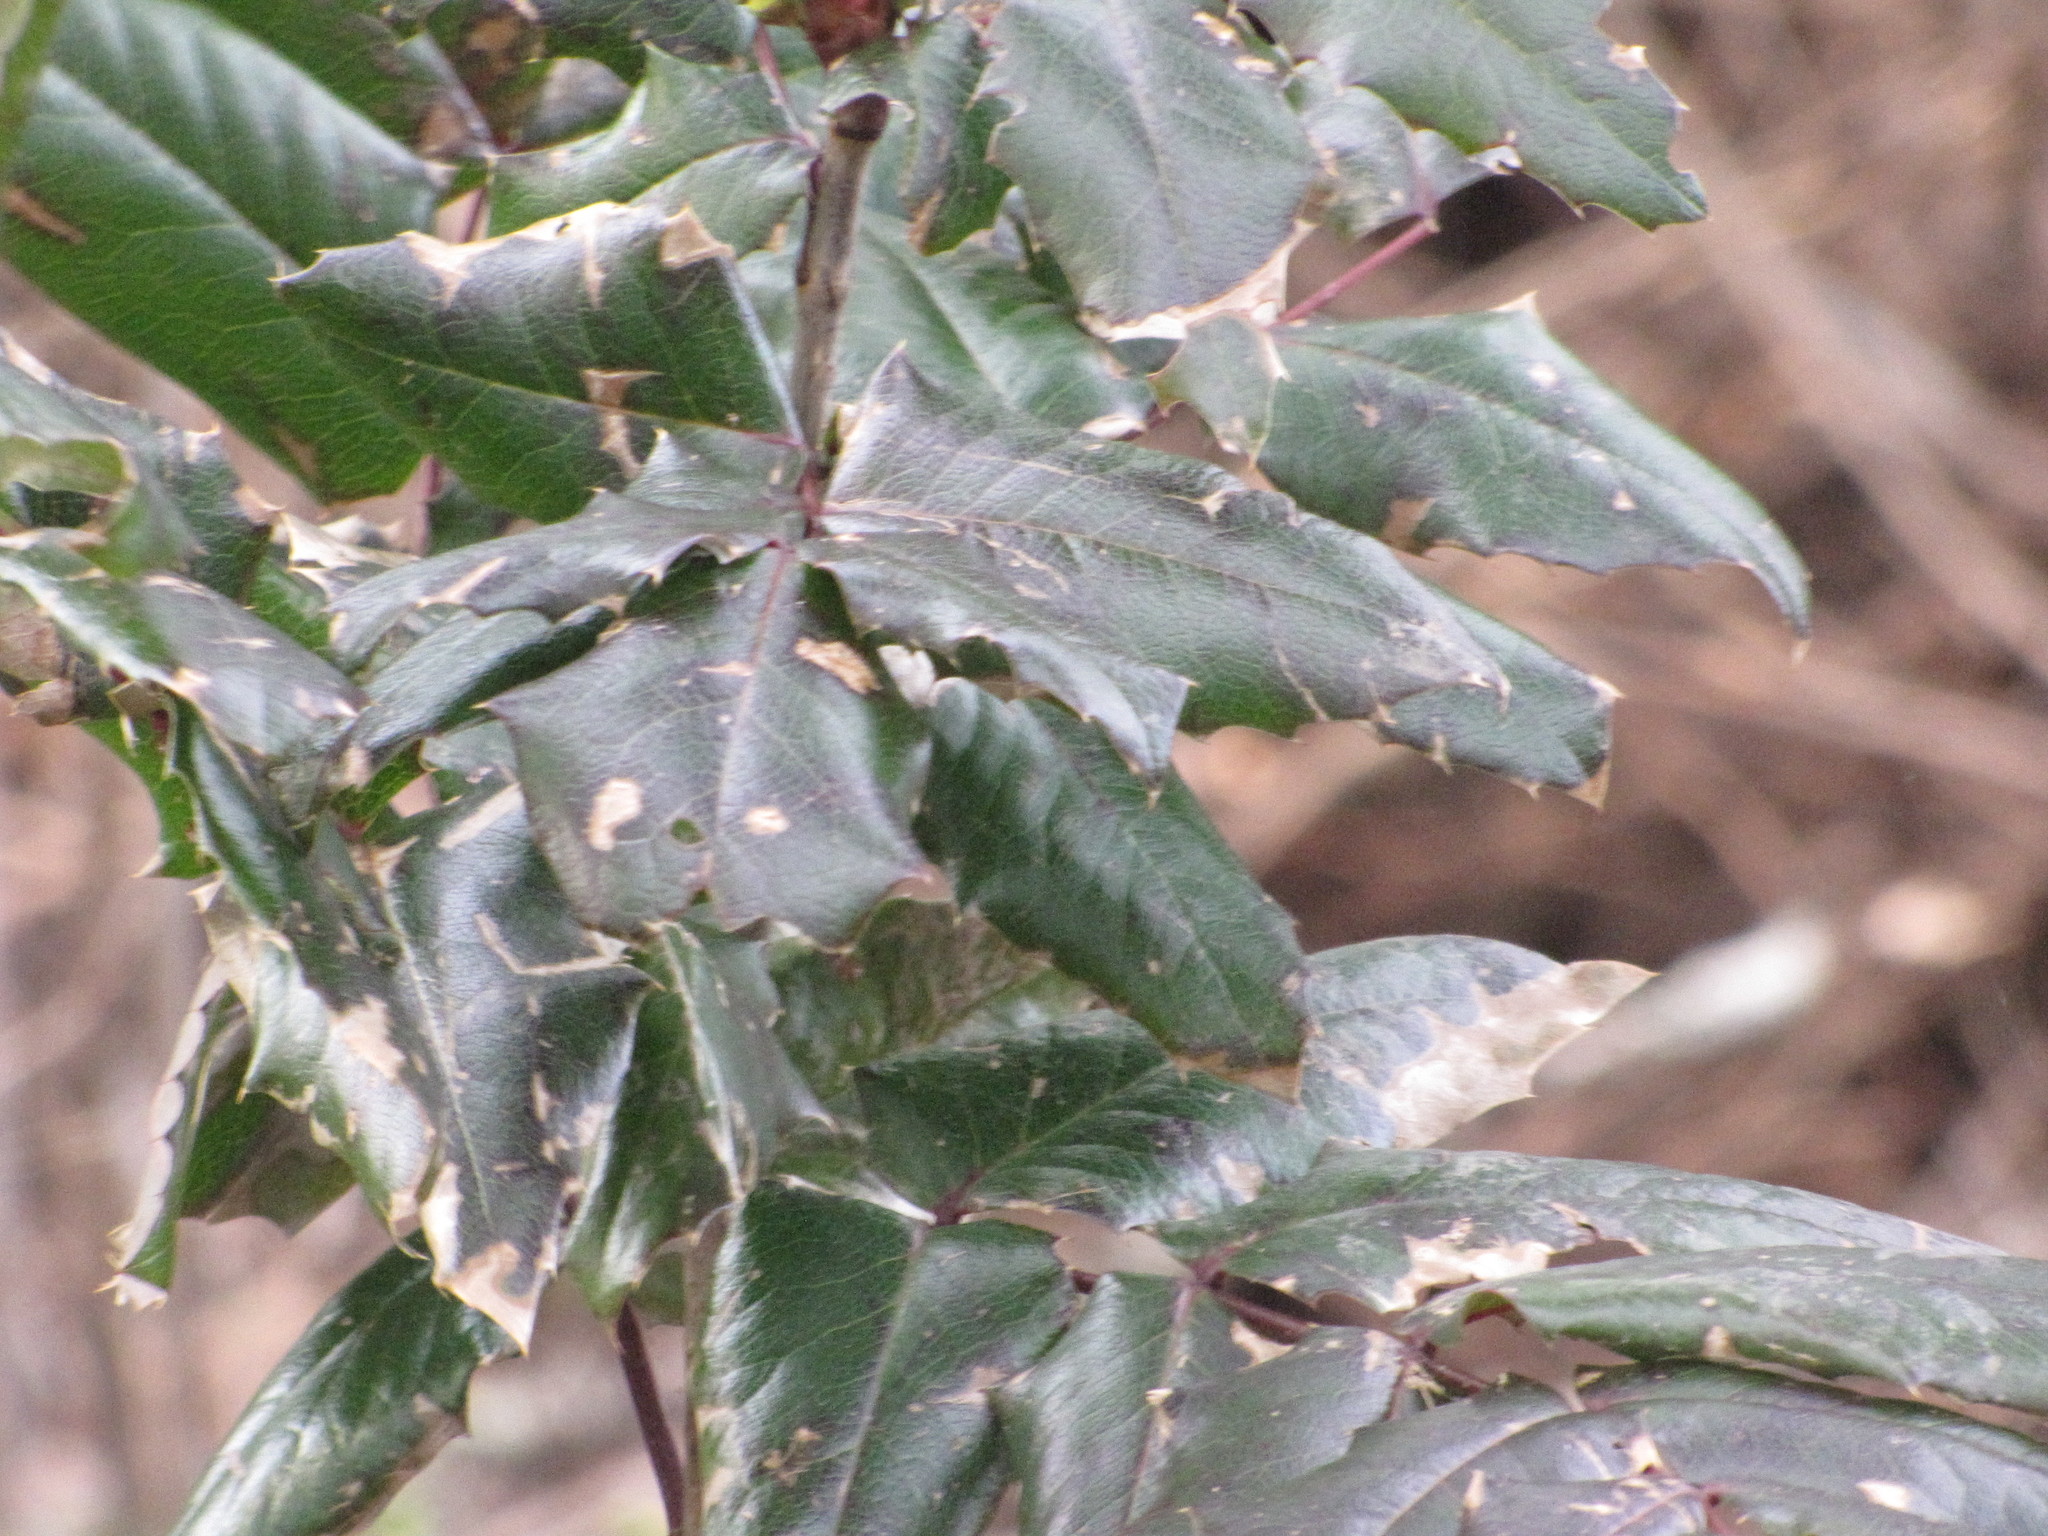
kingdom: Plantae
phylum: Tracheophyta
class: Magnoliopsida
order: Ranunculales
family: Berberidaceae
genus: Mahonia
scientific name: Mahonia aquifolium
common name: Oregon-grape
